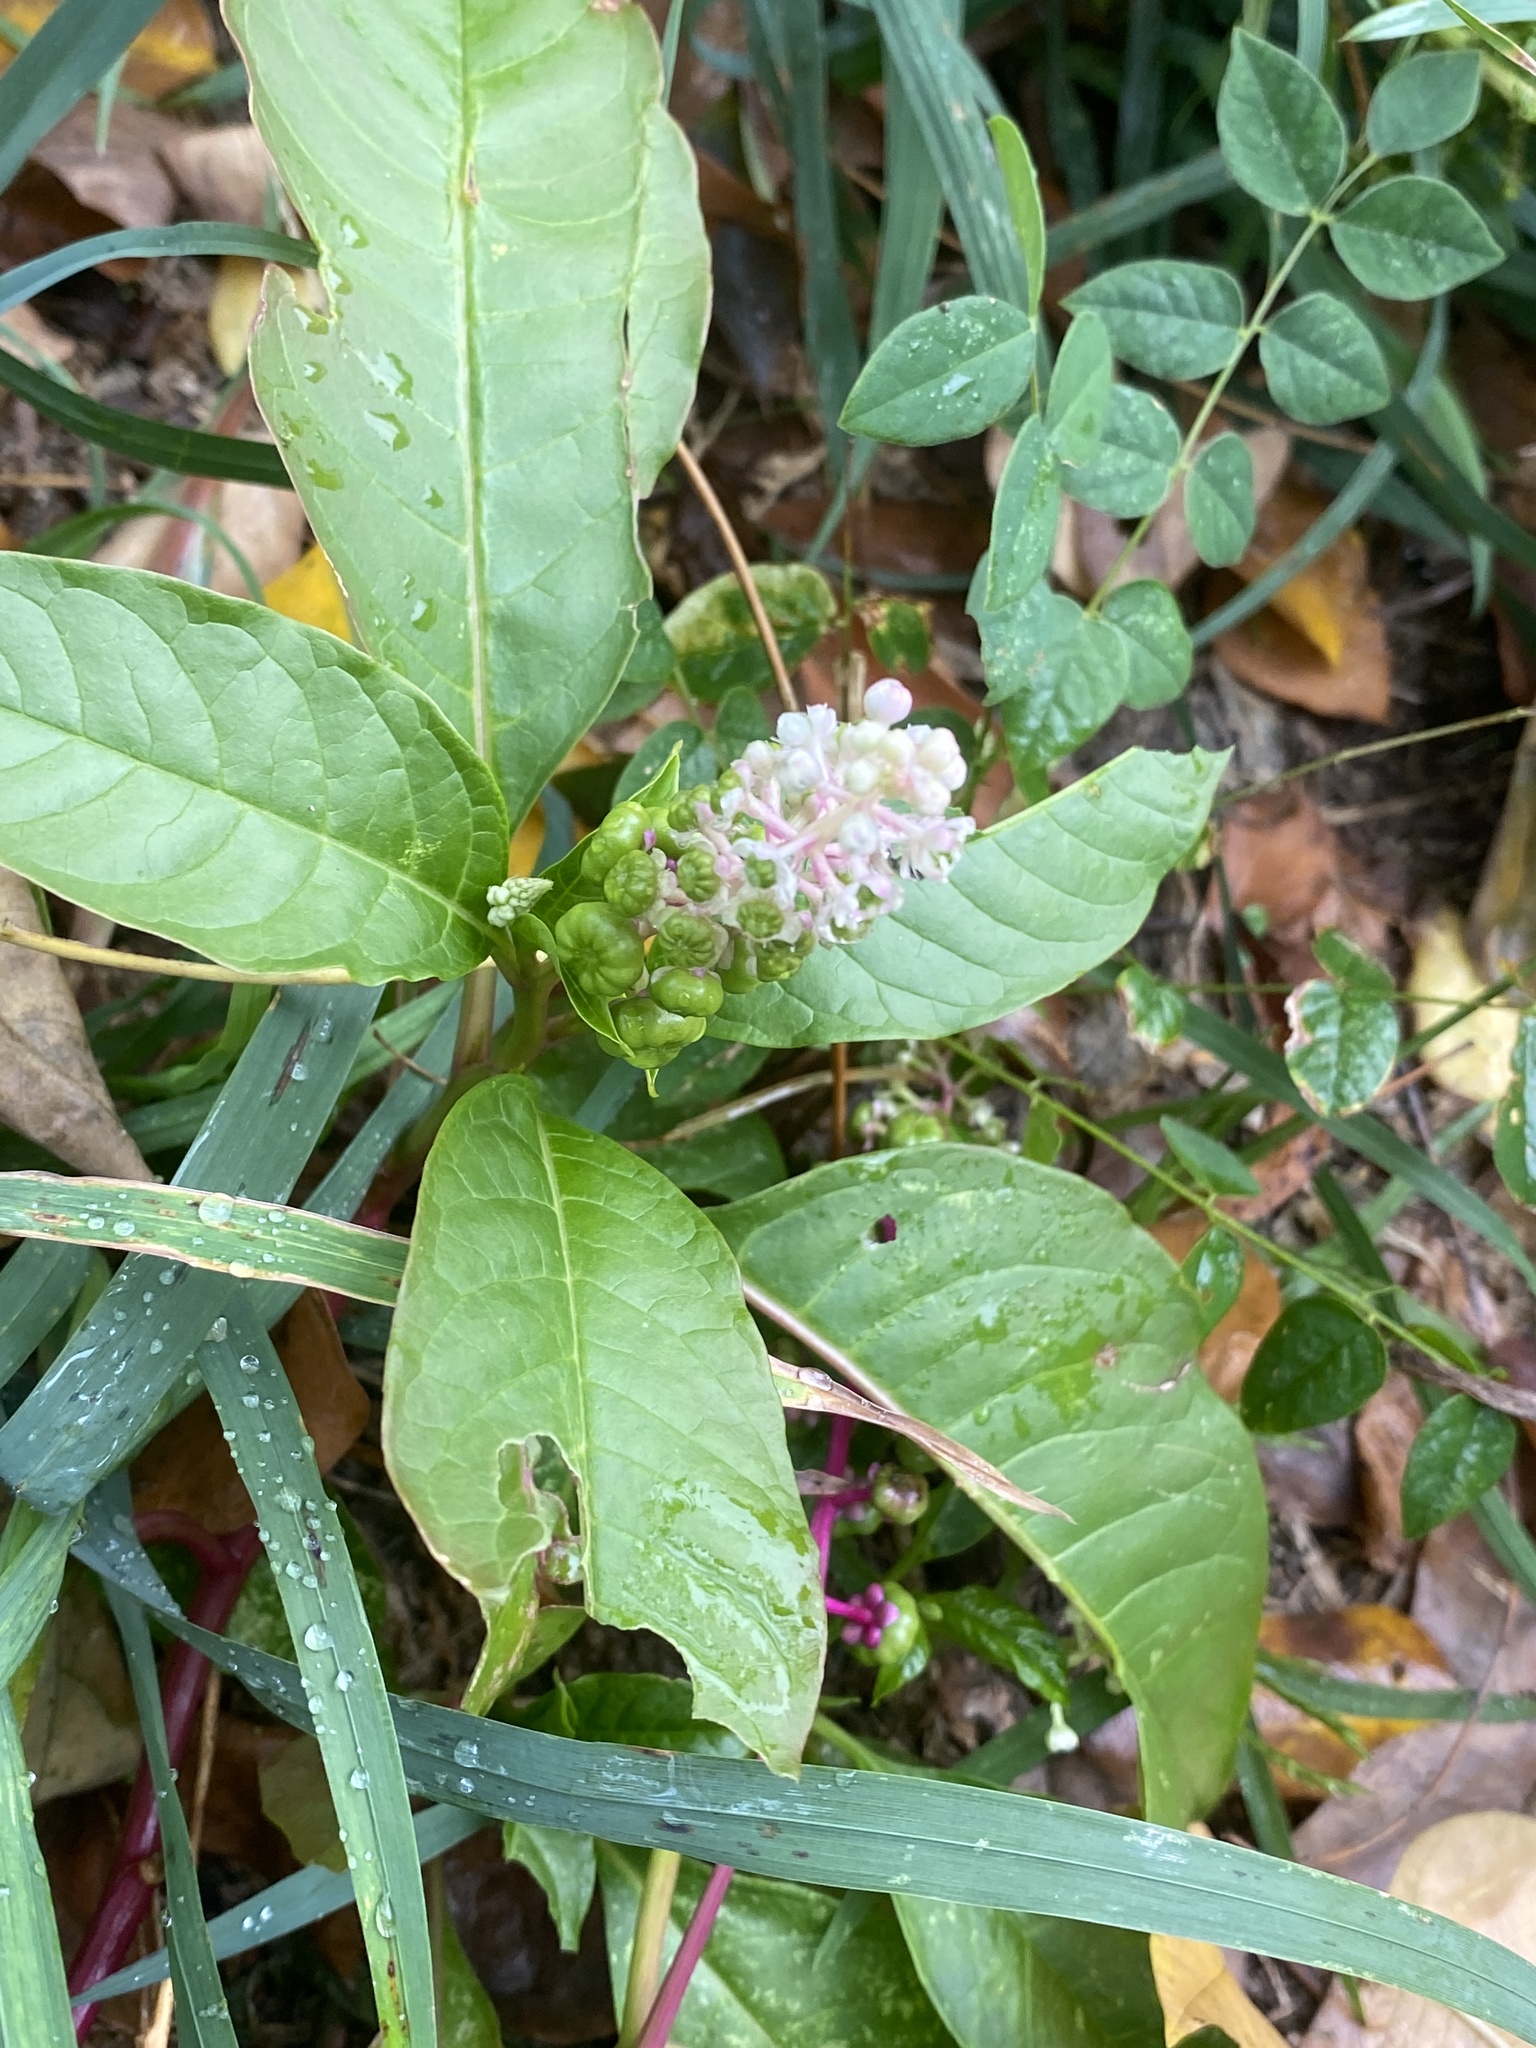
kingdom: Plantae
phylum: Tracheophyta
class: Magnoliopsida
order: Caryophyllales
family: Phytolaccaceae
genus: Phytolacca
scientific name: Phytolacca americana
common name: American pokeweed
